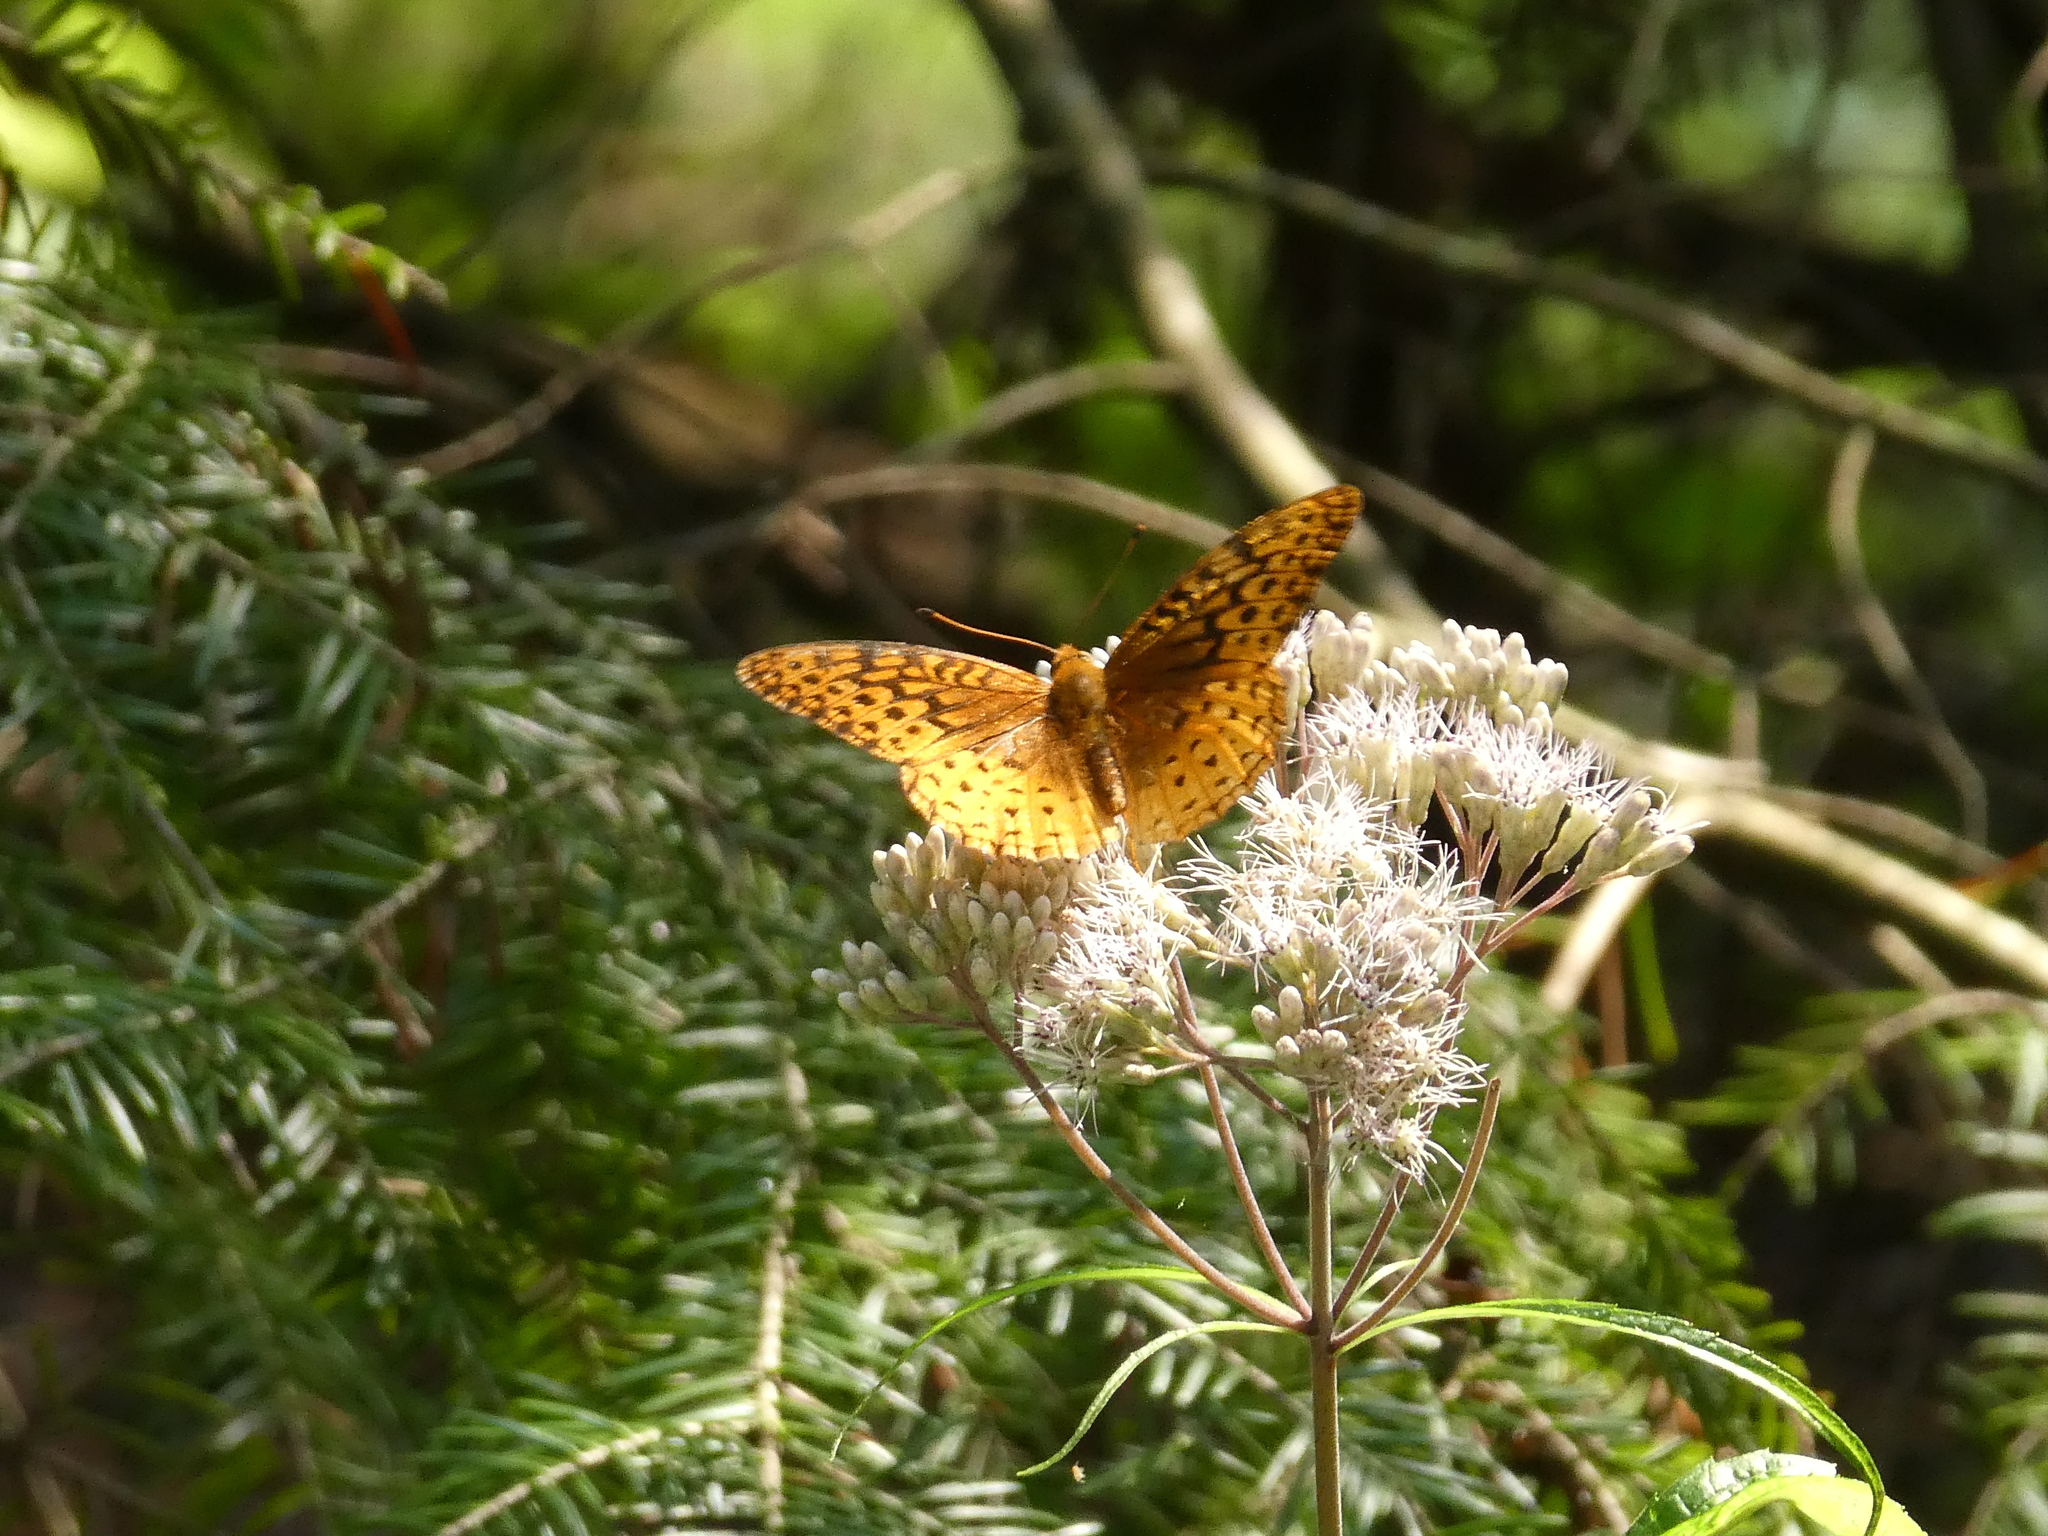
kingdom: Animalia
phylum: Arthropoda
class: Insecta
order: Lepidoptera
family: Nymphalidae
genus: Speyeria
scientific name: Speyeria cybele
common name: Great spangled fritillary
